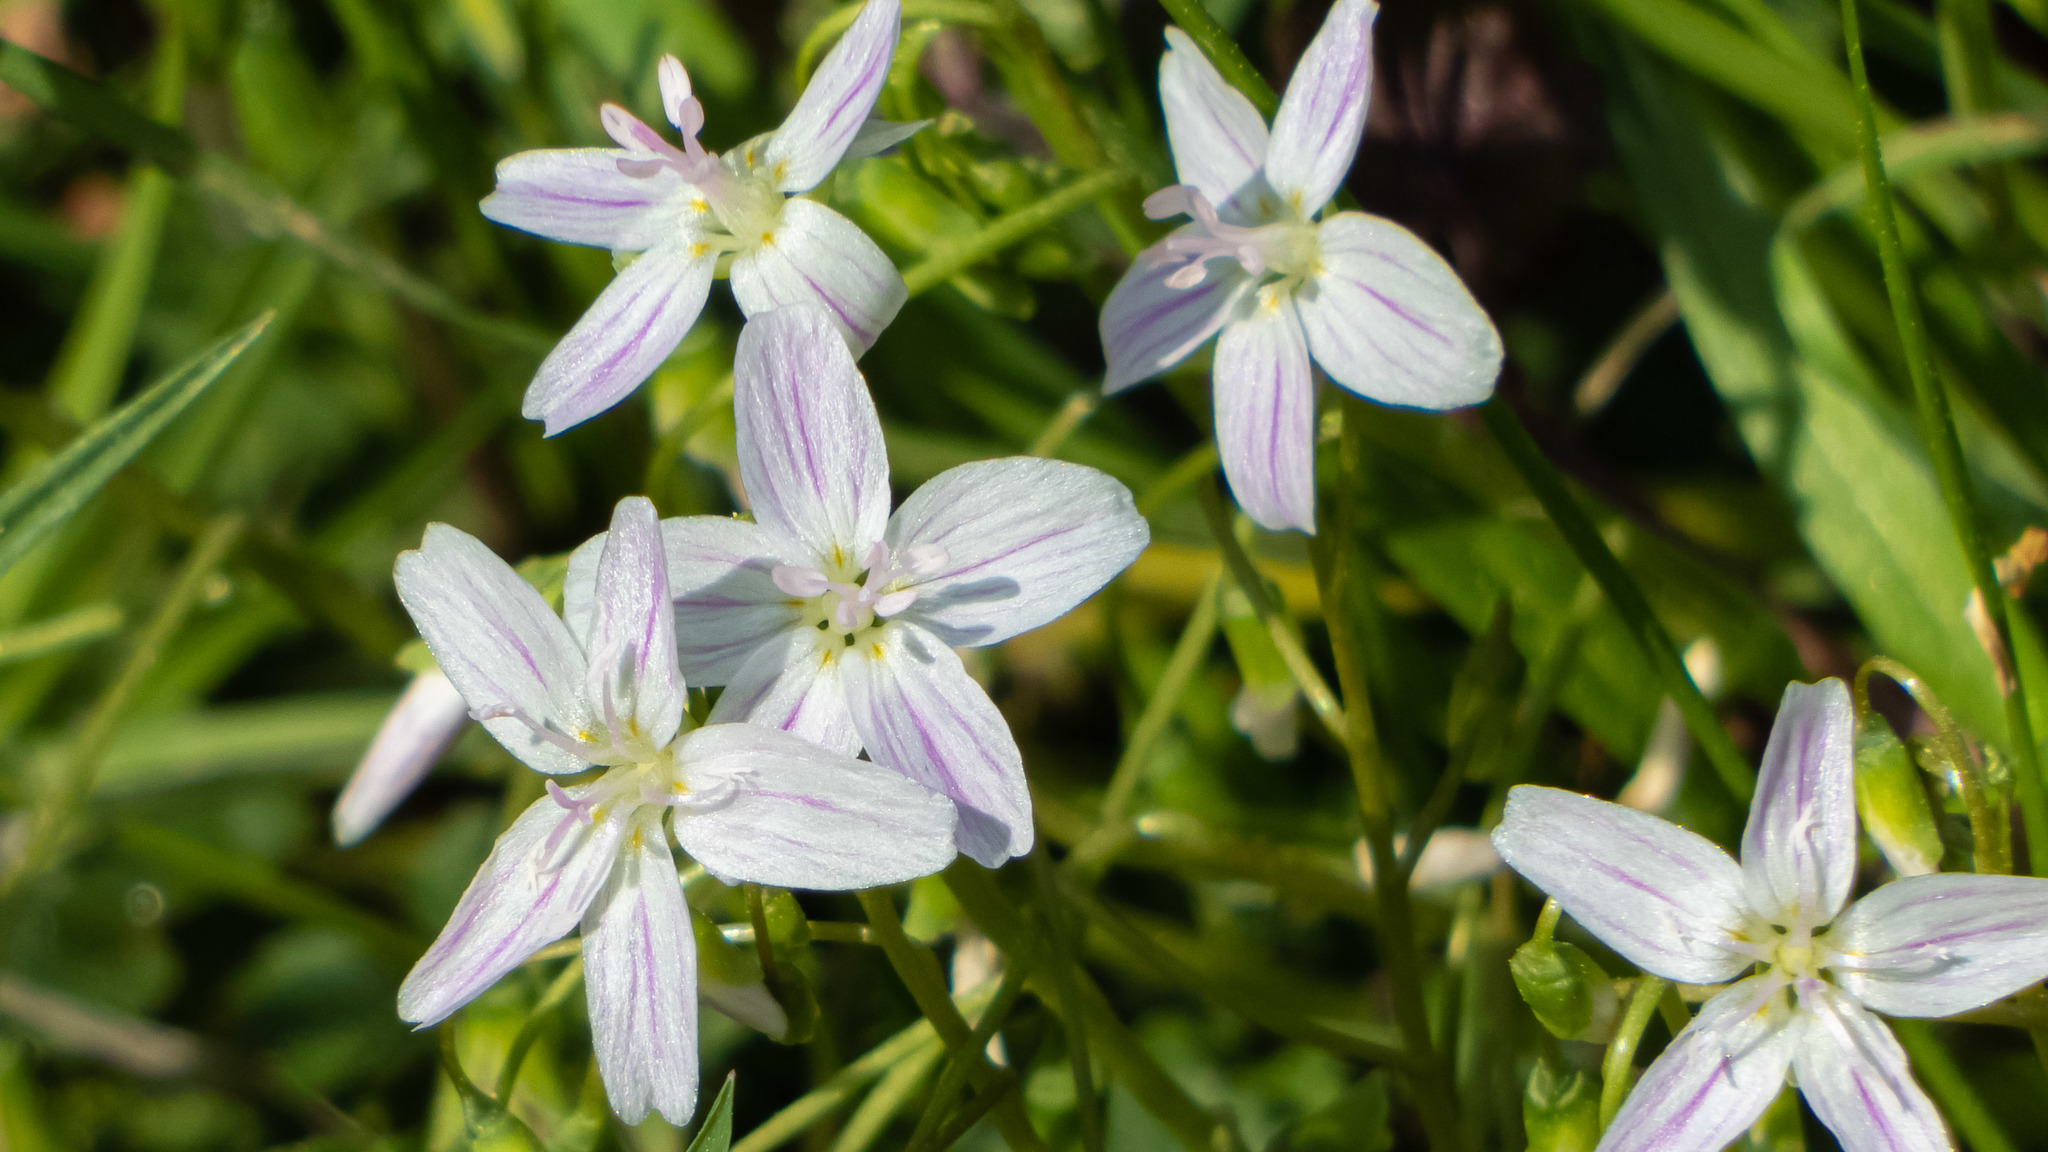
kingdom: Plantae
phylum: Tracheophyta
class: Magnoliopsida
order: Caryophyllales
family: Montiaceae
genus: Claytonia
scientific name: Claytonia virginica
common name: Virginia springbeauty
